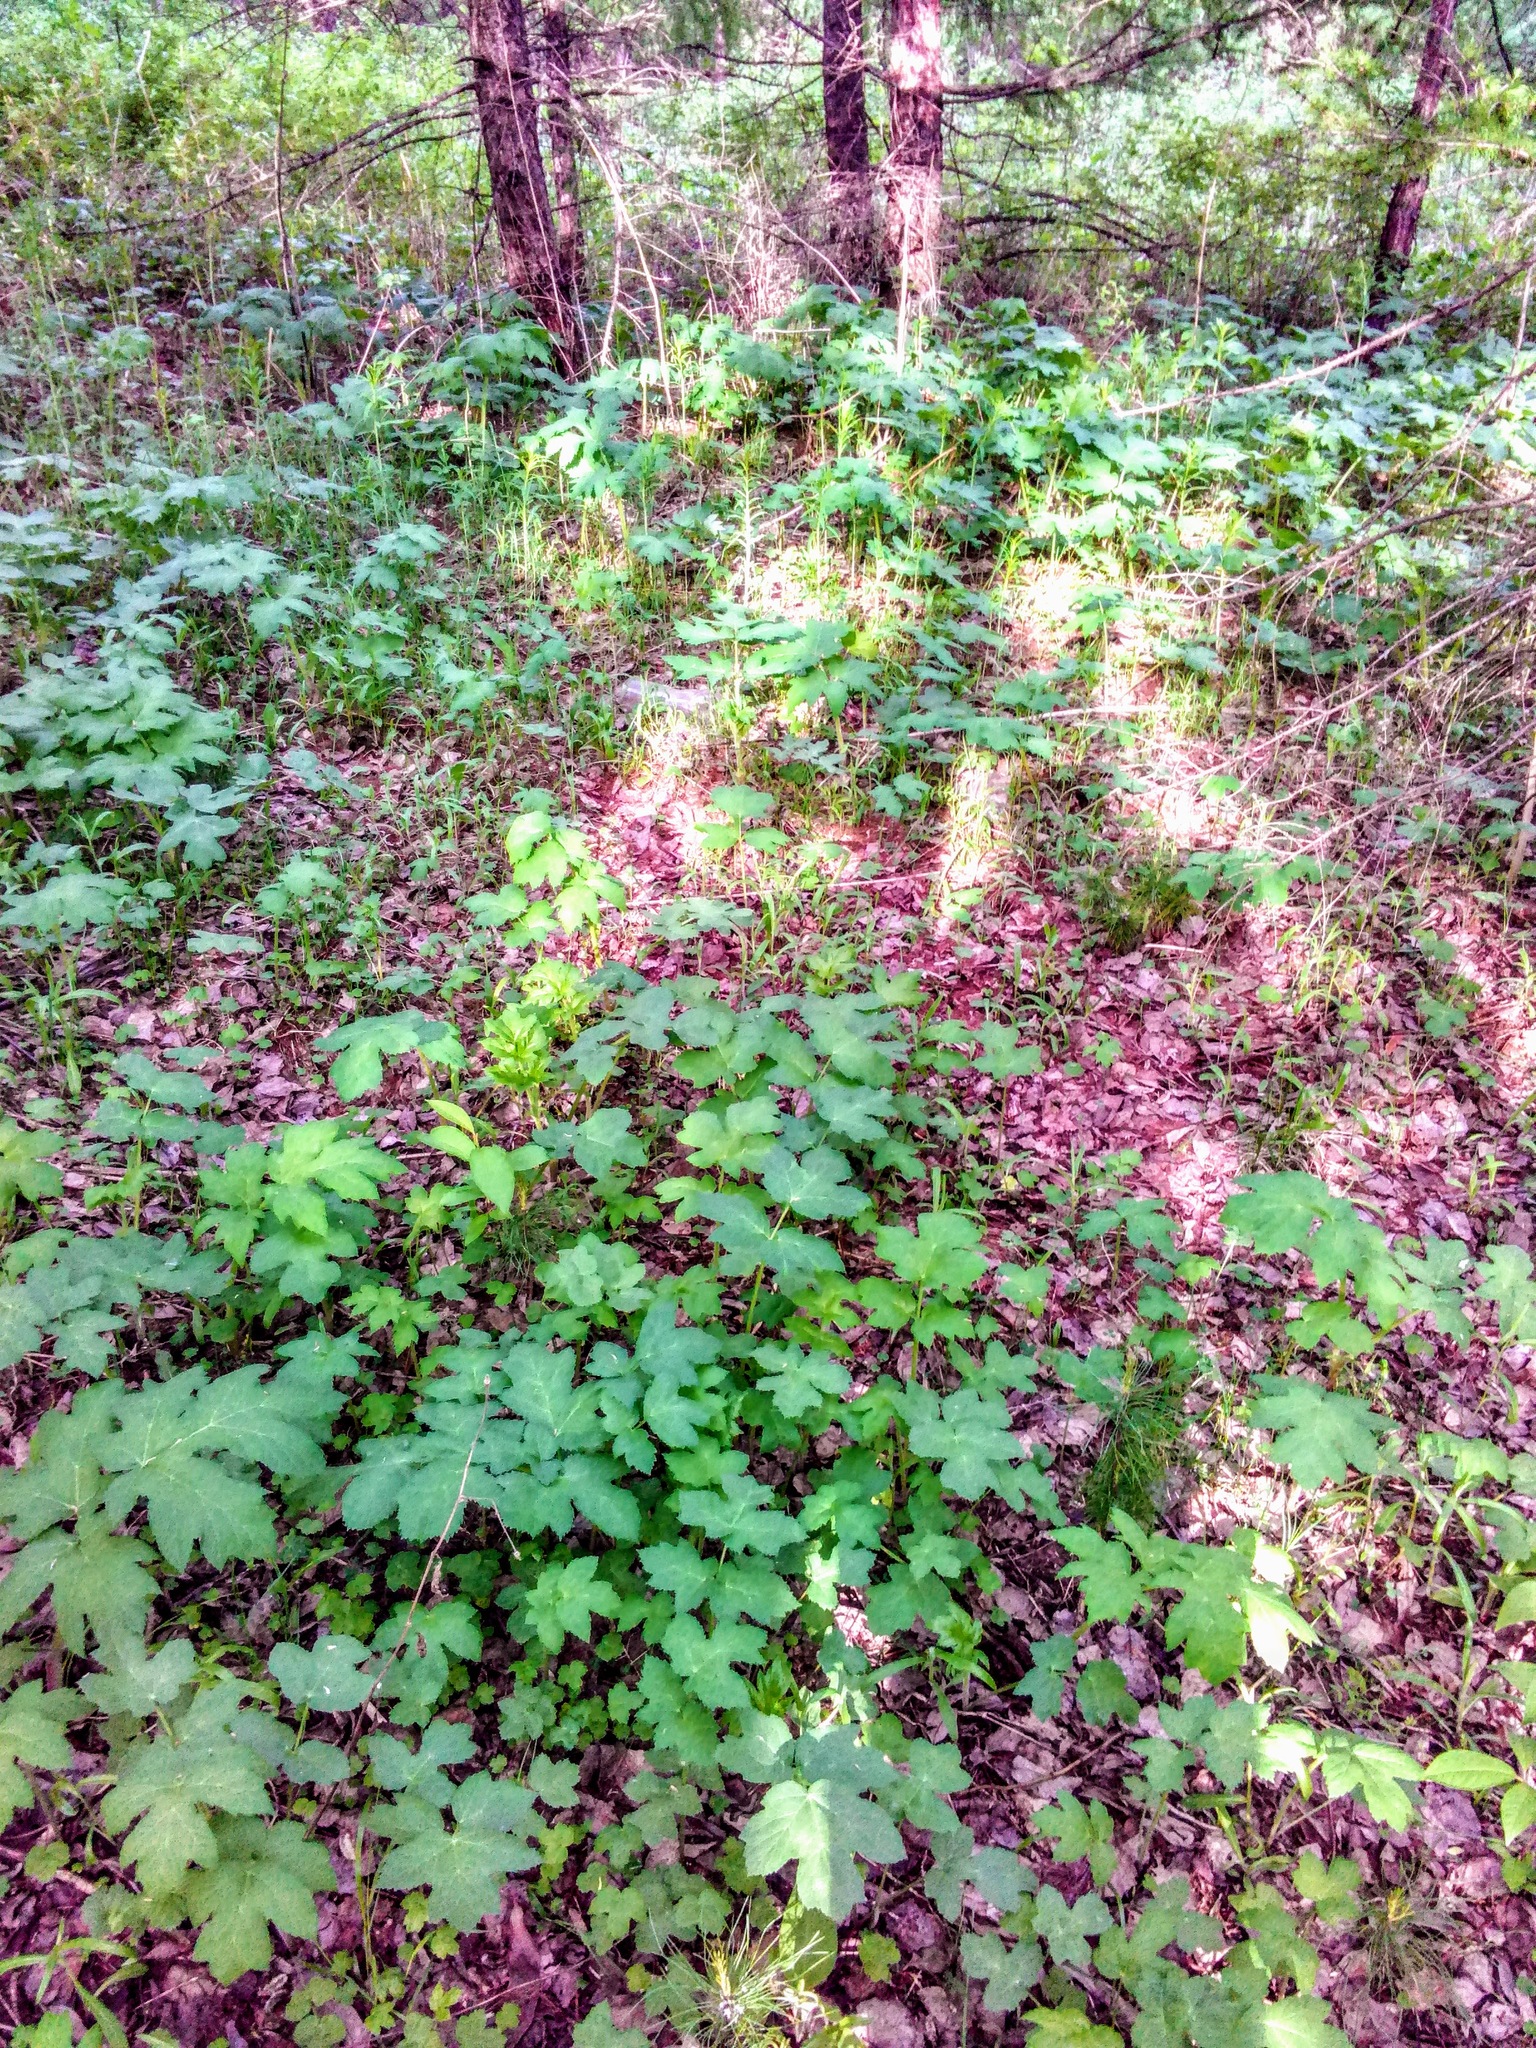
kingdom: Plantae
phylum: Tracheophyta
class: Magnoliopsida
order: Apiales
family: Apiaceae
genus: Heracleum
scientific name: Heracleum sosnowskyi
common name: Sosnowsky's hogweed
